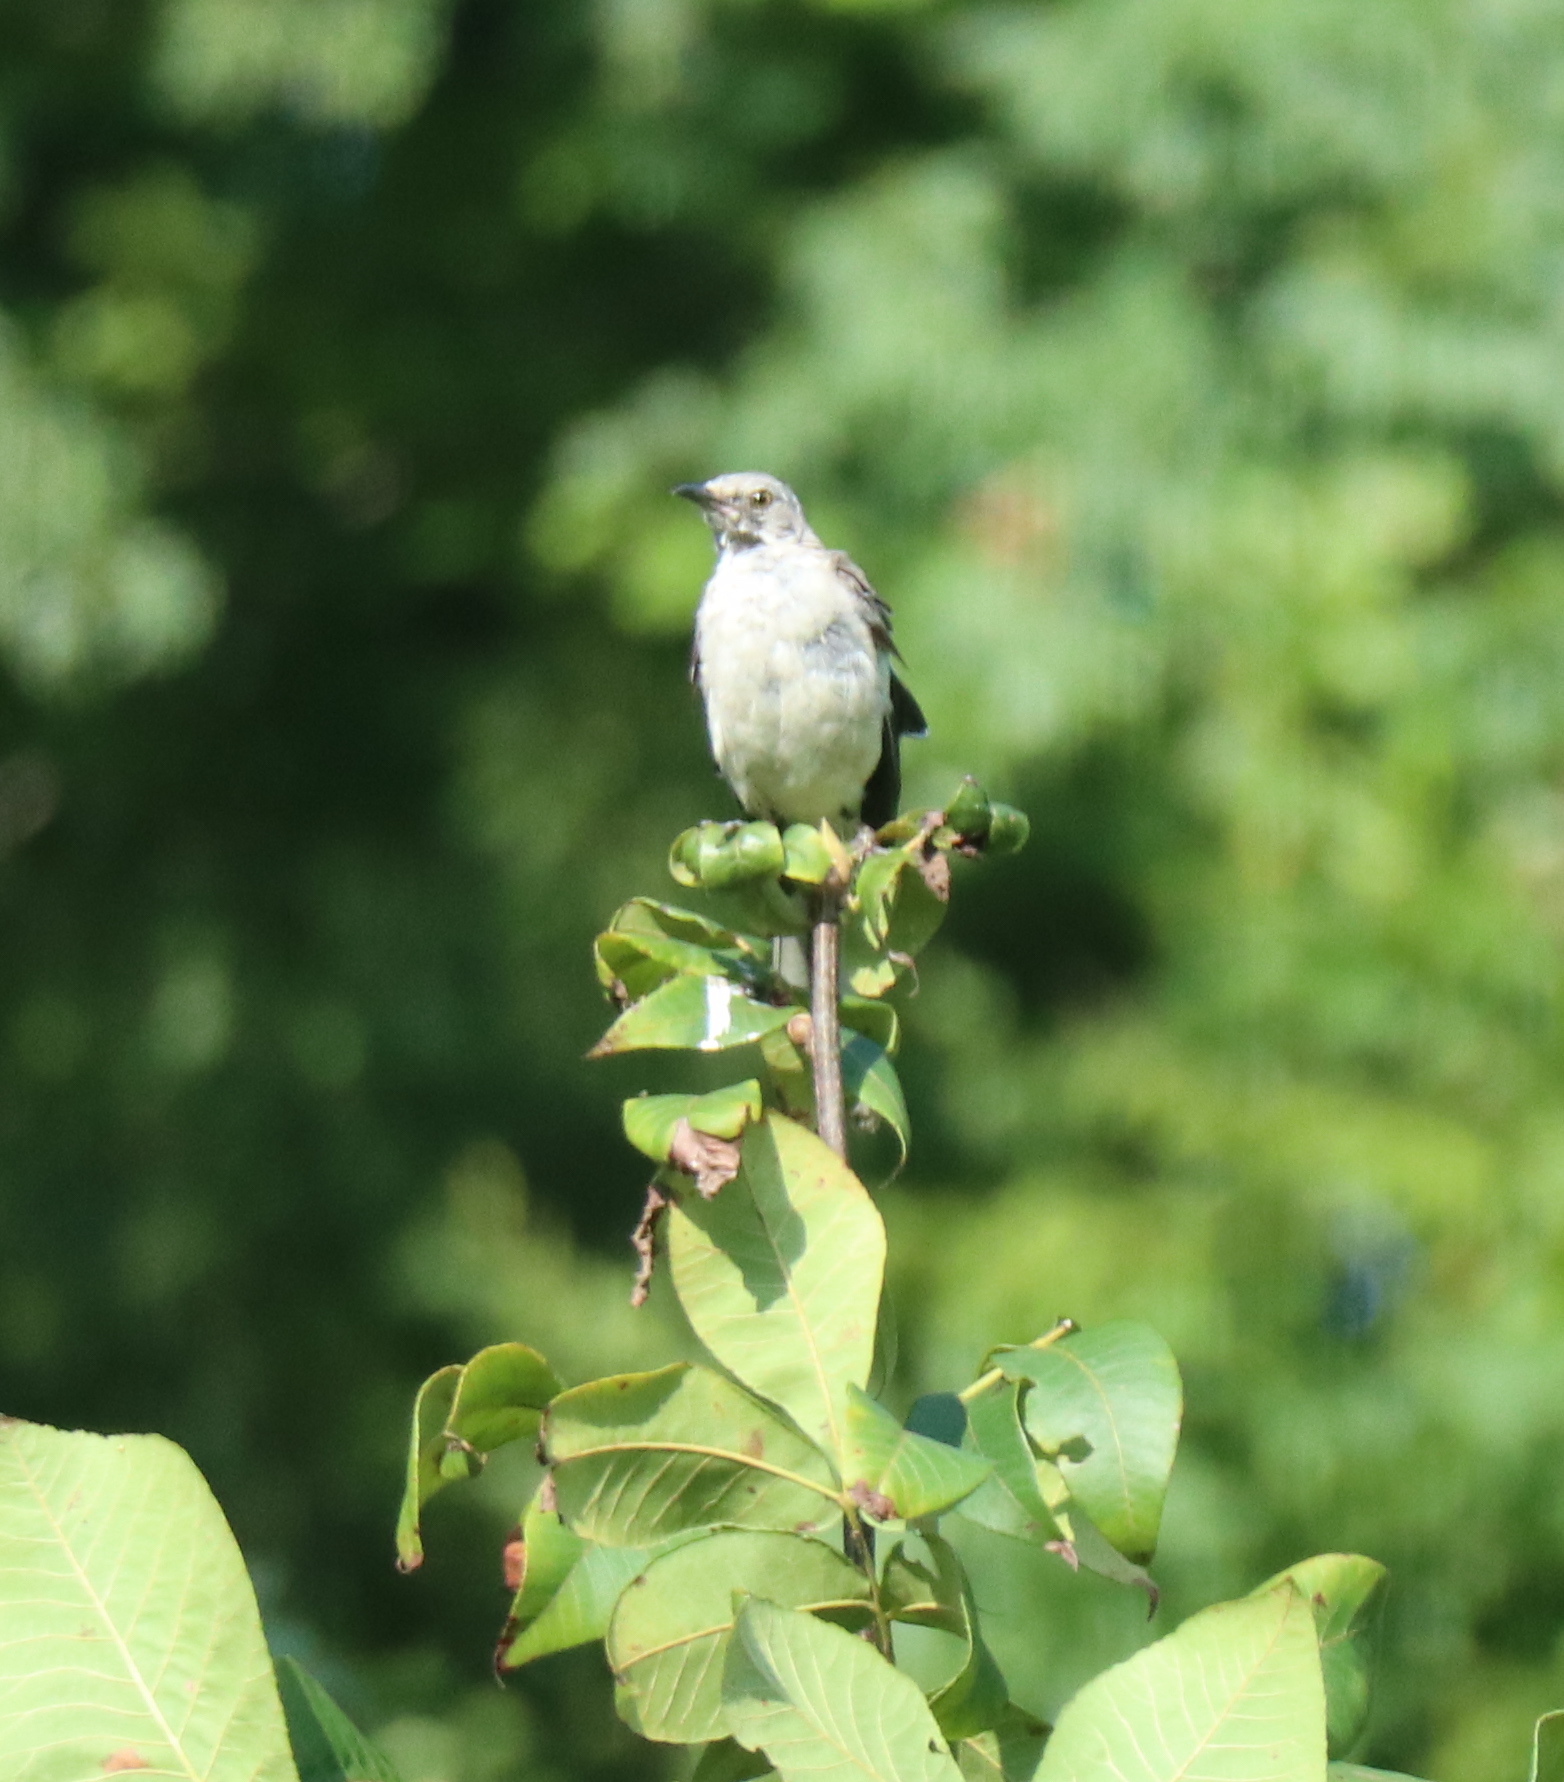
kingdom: Animalia
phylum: Chordata
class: Aves
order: Passeriformes
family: Mimidae
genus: Mimus
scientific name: Mimus polyglottos
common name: Northern mockingbird
